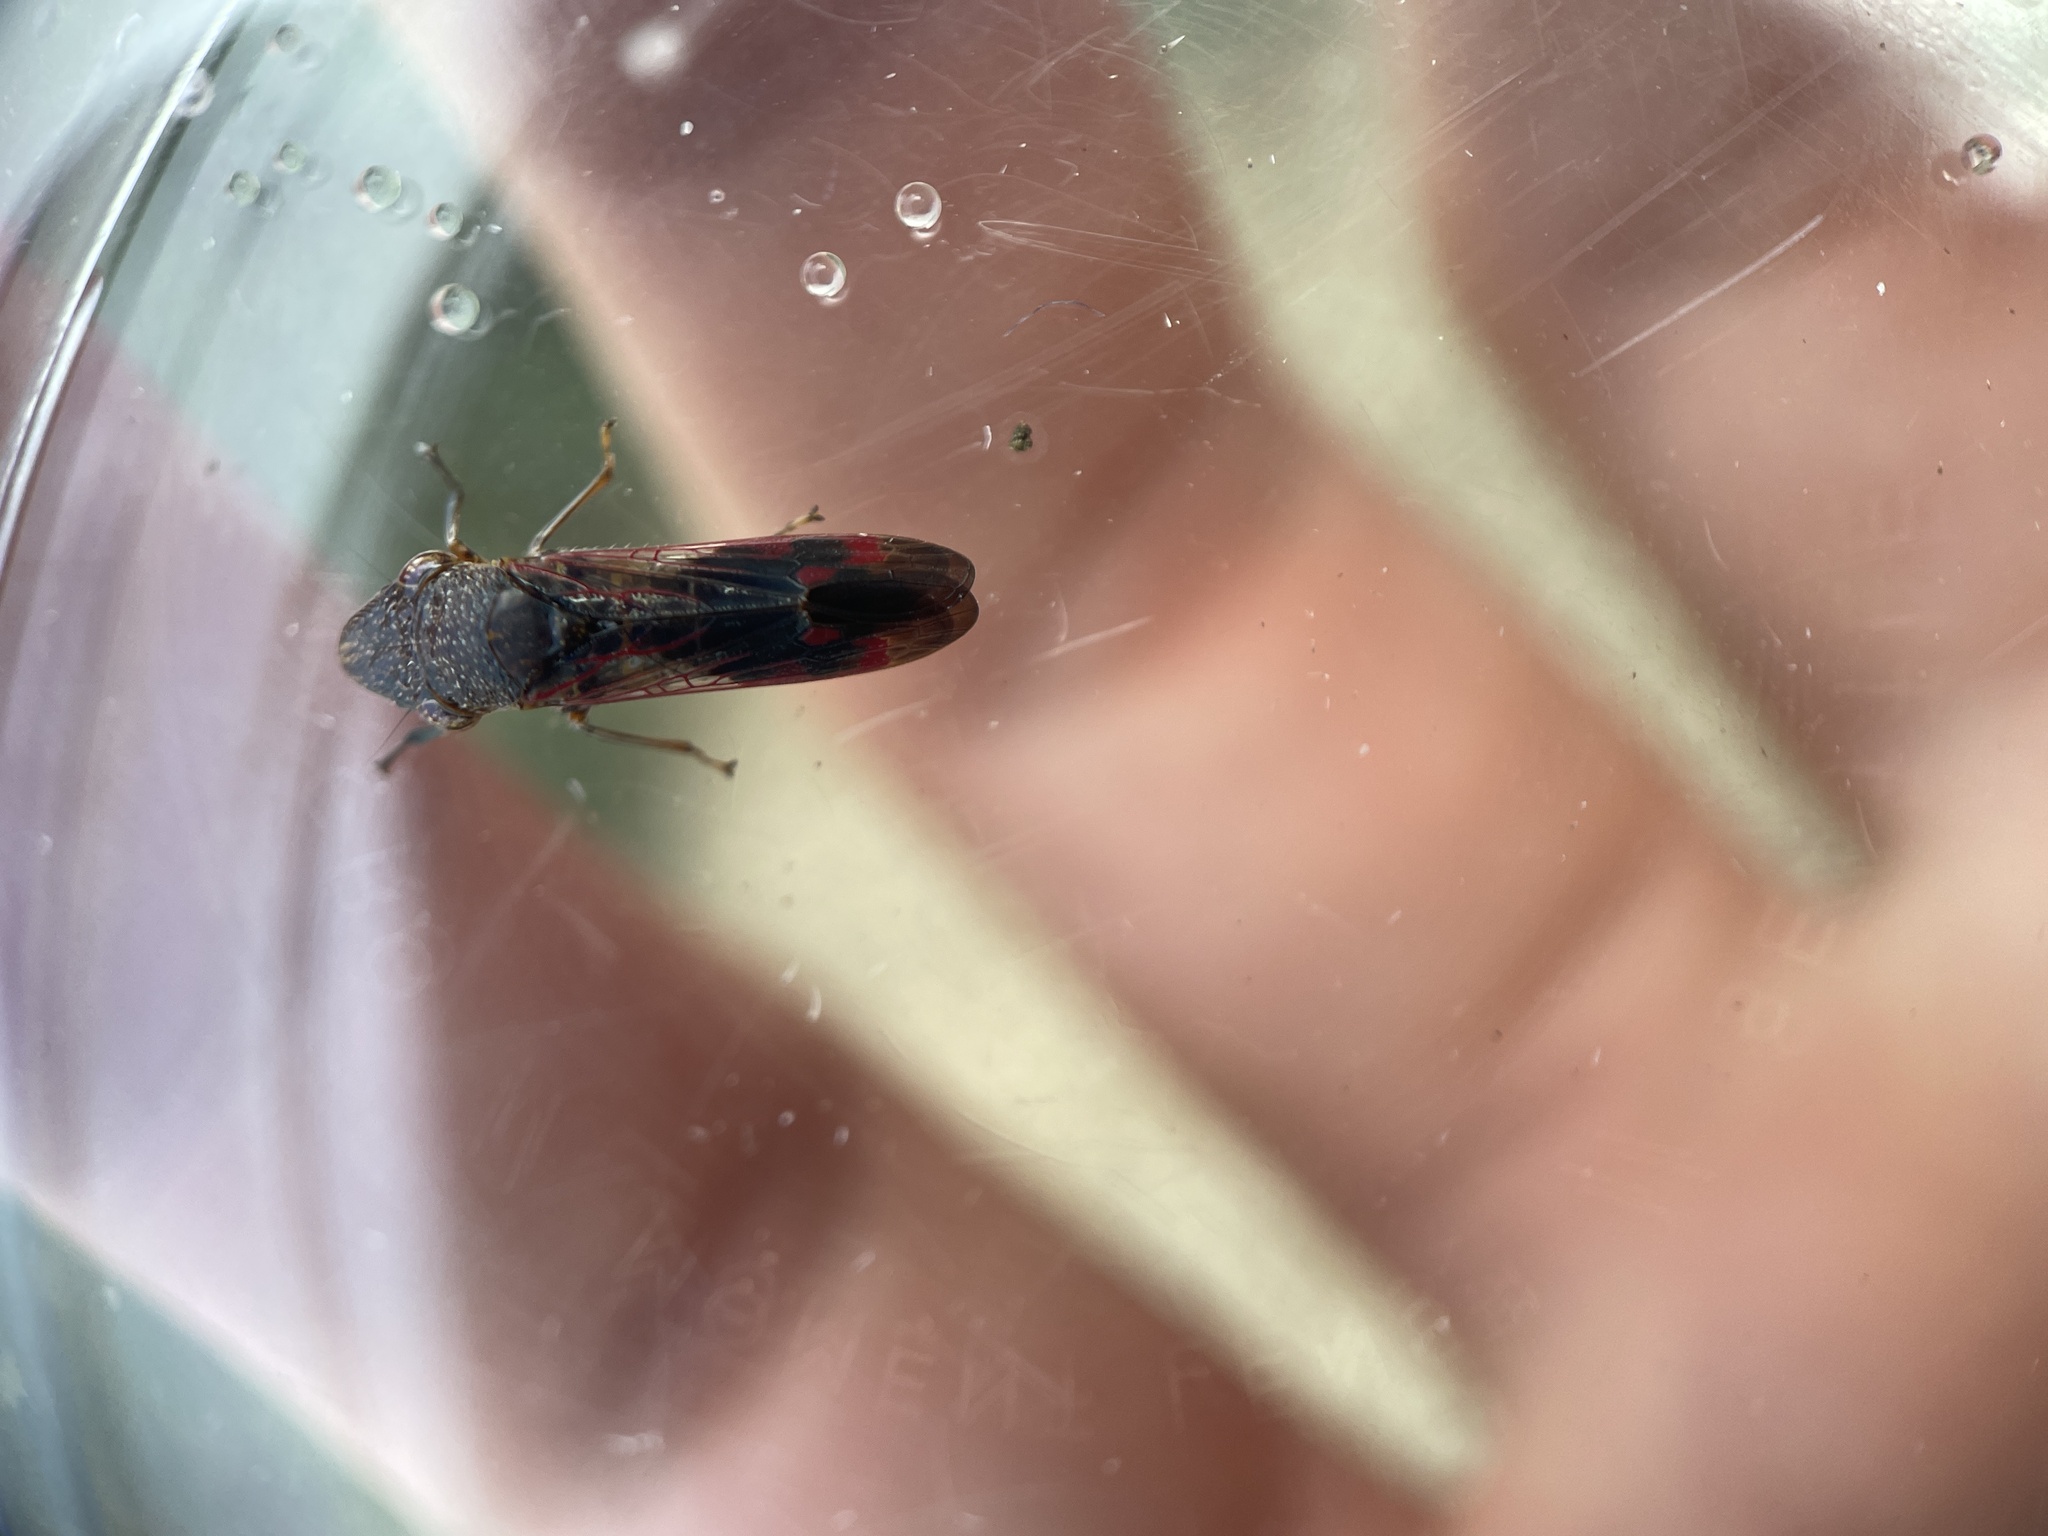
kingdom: Animalia
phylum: Arthropoda
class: Insecta
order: Hemiptera
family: Cicadellidae
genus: Homalodisca
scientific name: Homalodisca vitripennis
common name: Glassy-winged sharpshooter
